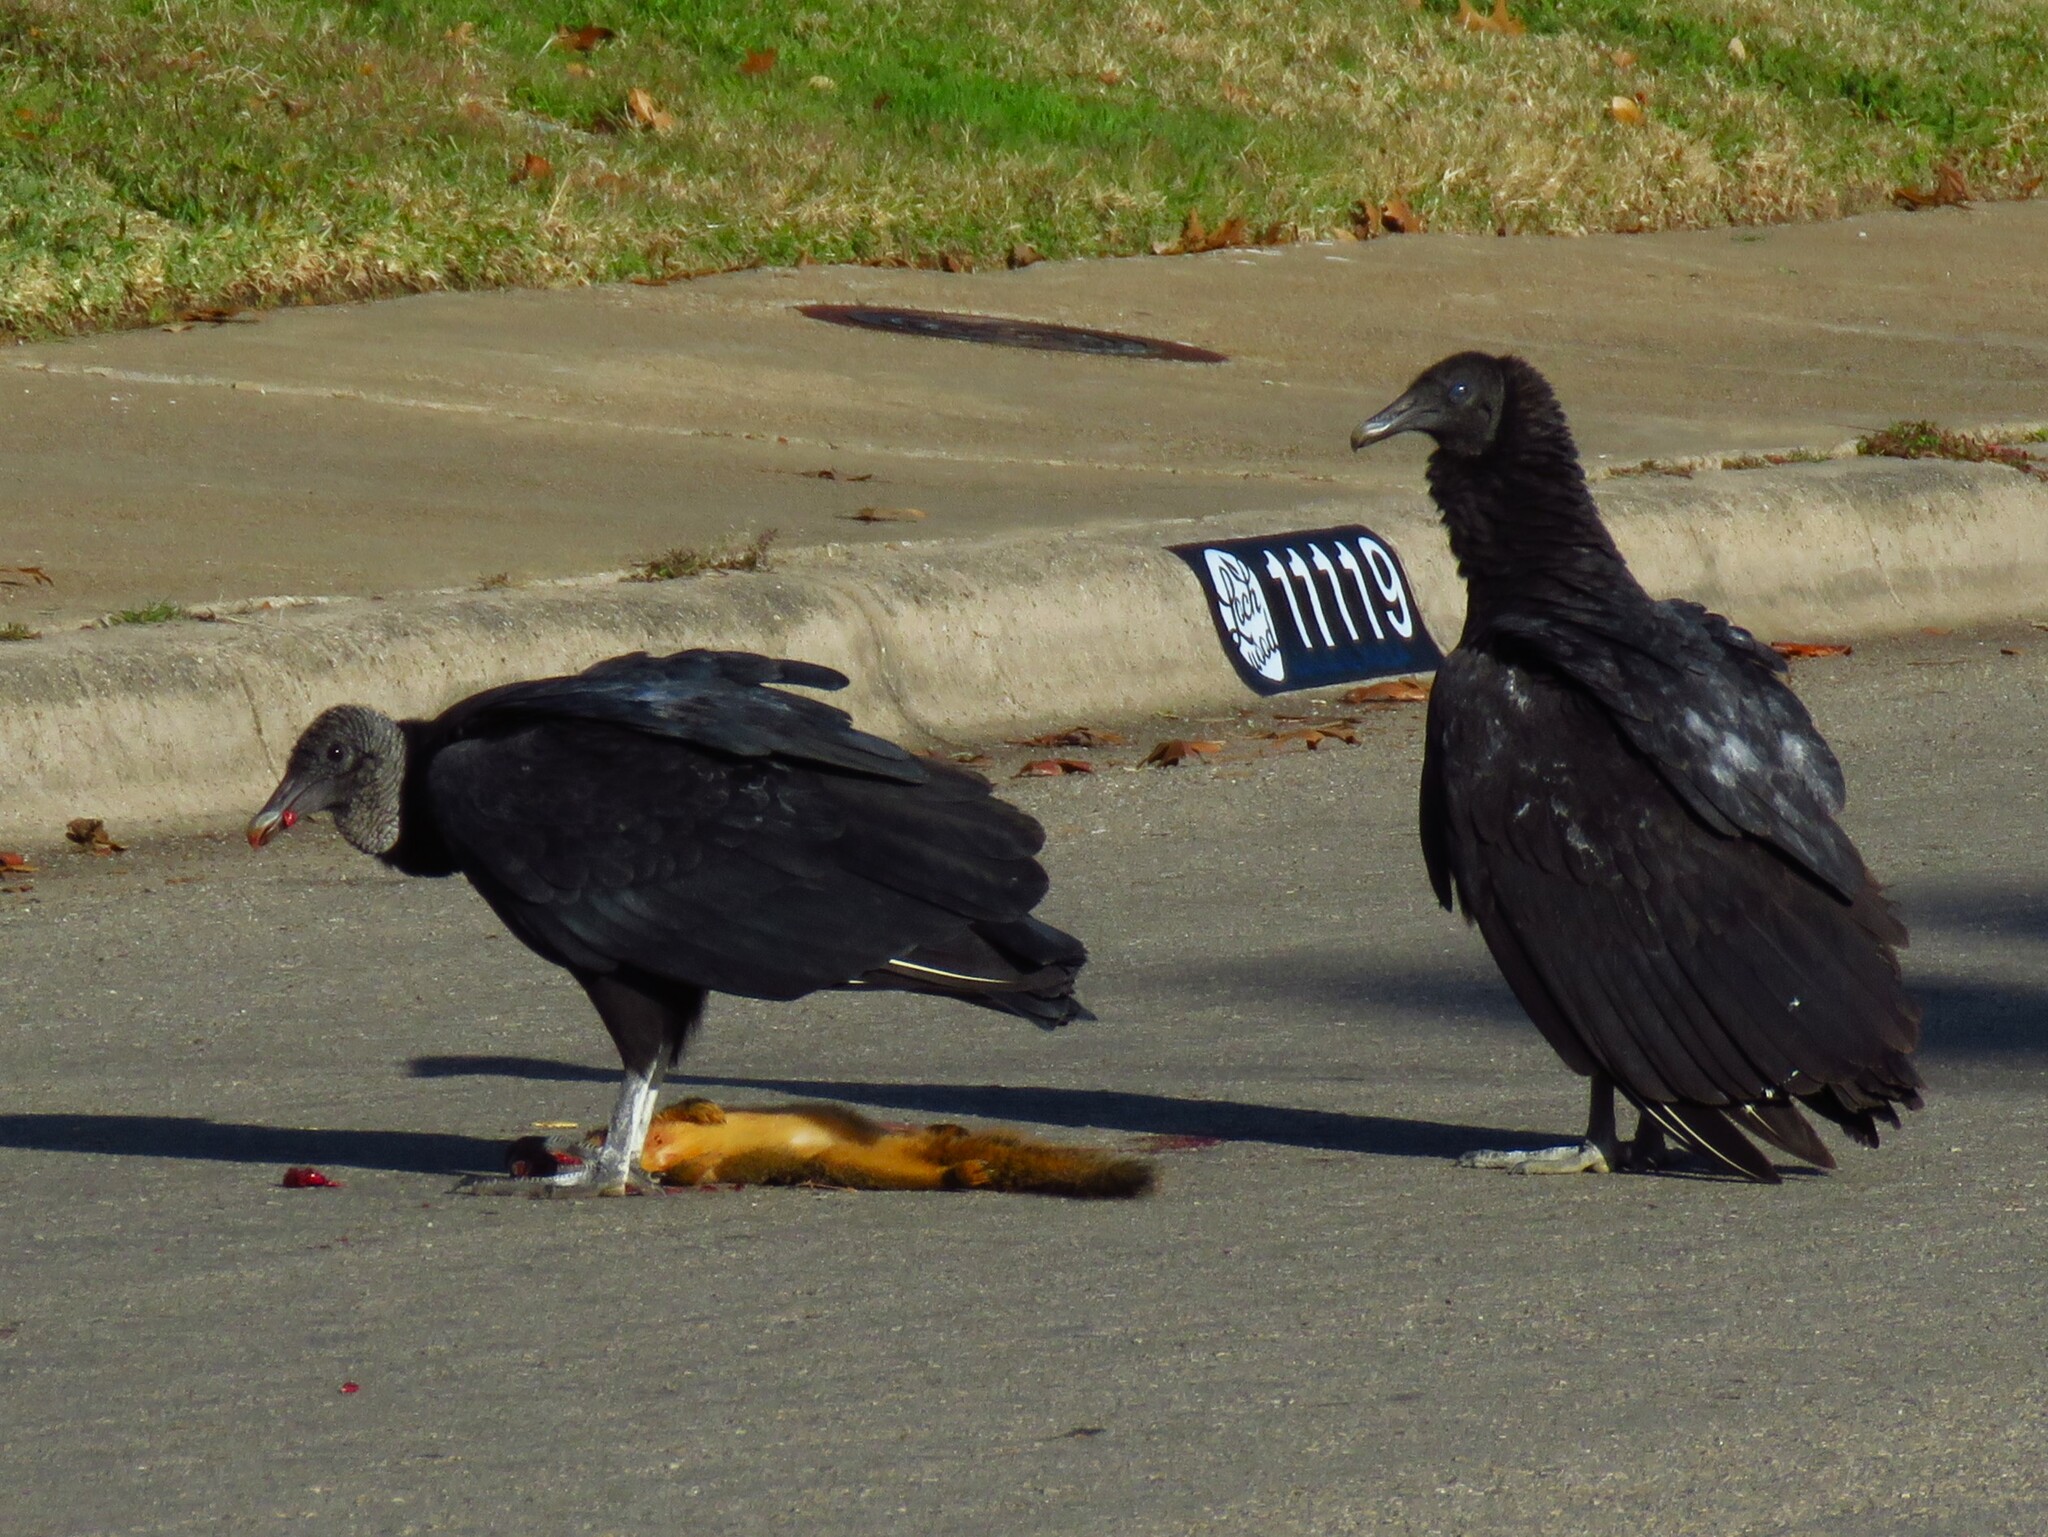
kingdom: Animalia
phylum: Chordata
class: Aves
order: Accipitriformes
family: Cathartidae
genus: Coragyps
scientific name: Coragyps atratus
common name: Black vulture
